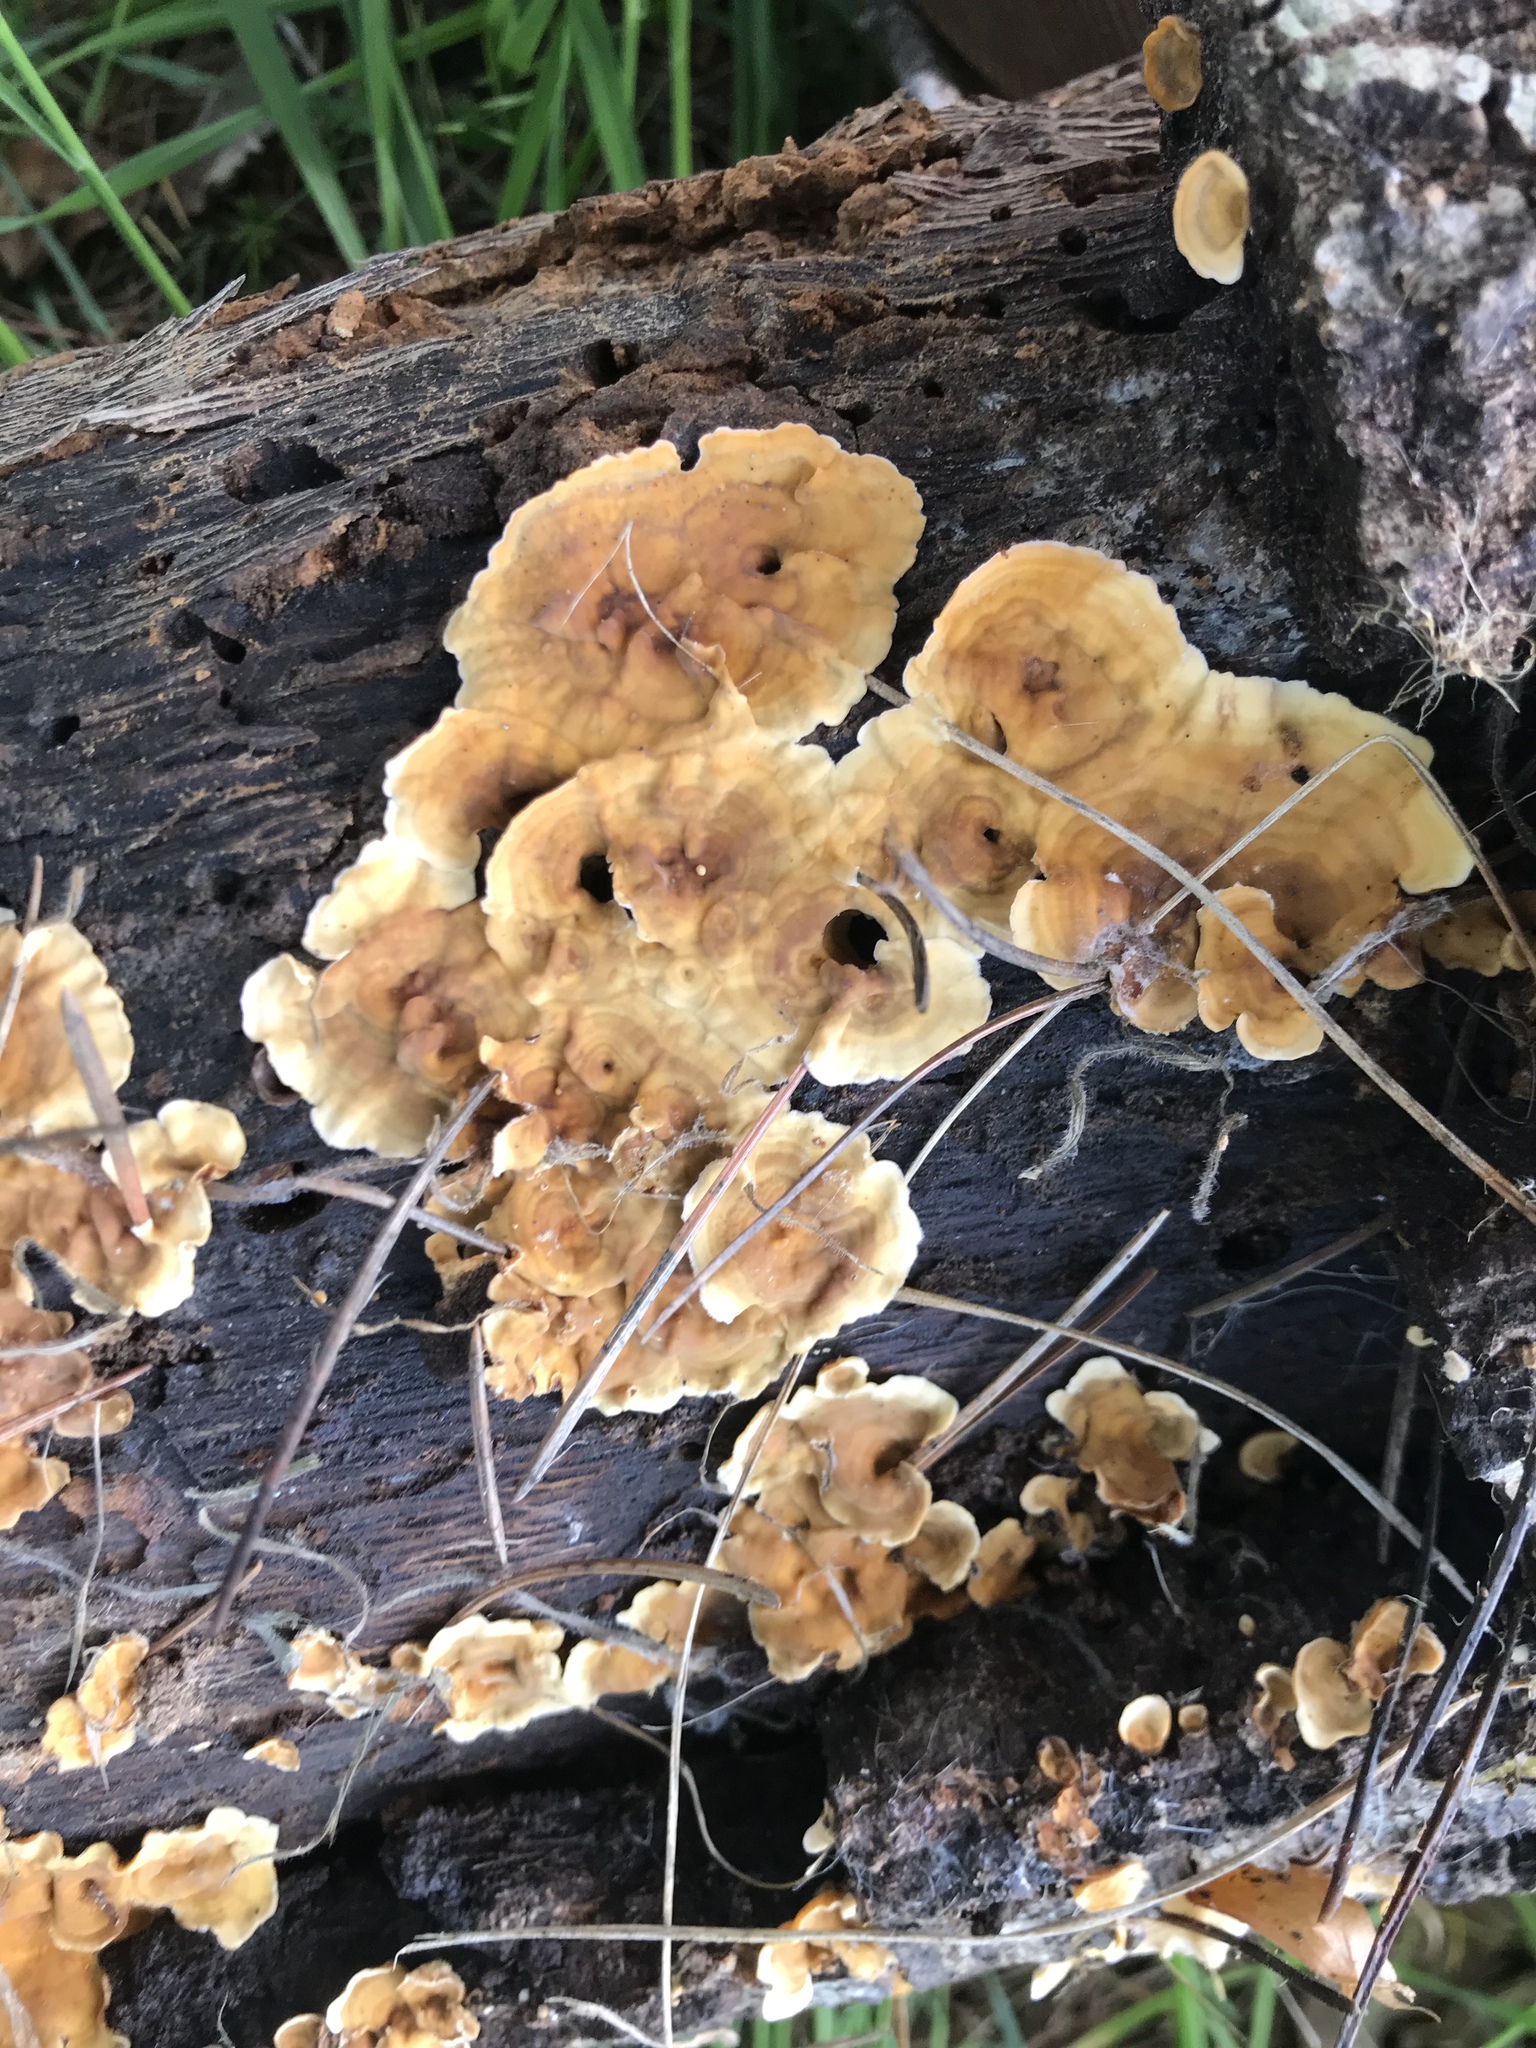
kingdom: Fungi
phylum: Basidiomycota
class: Agaricomycetes
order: Russulales
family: Stereaceae
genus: Stereum
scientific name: Stereum hirsutum
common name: Hairy curtain crust
